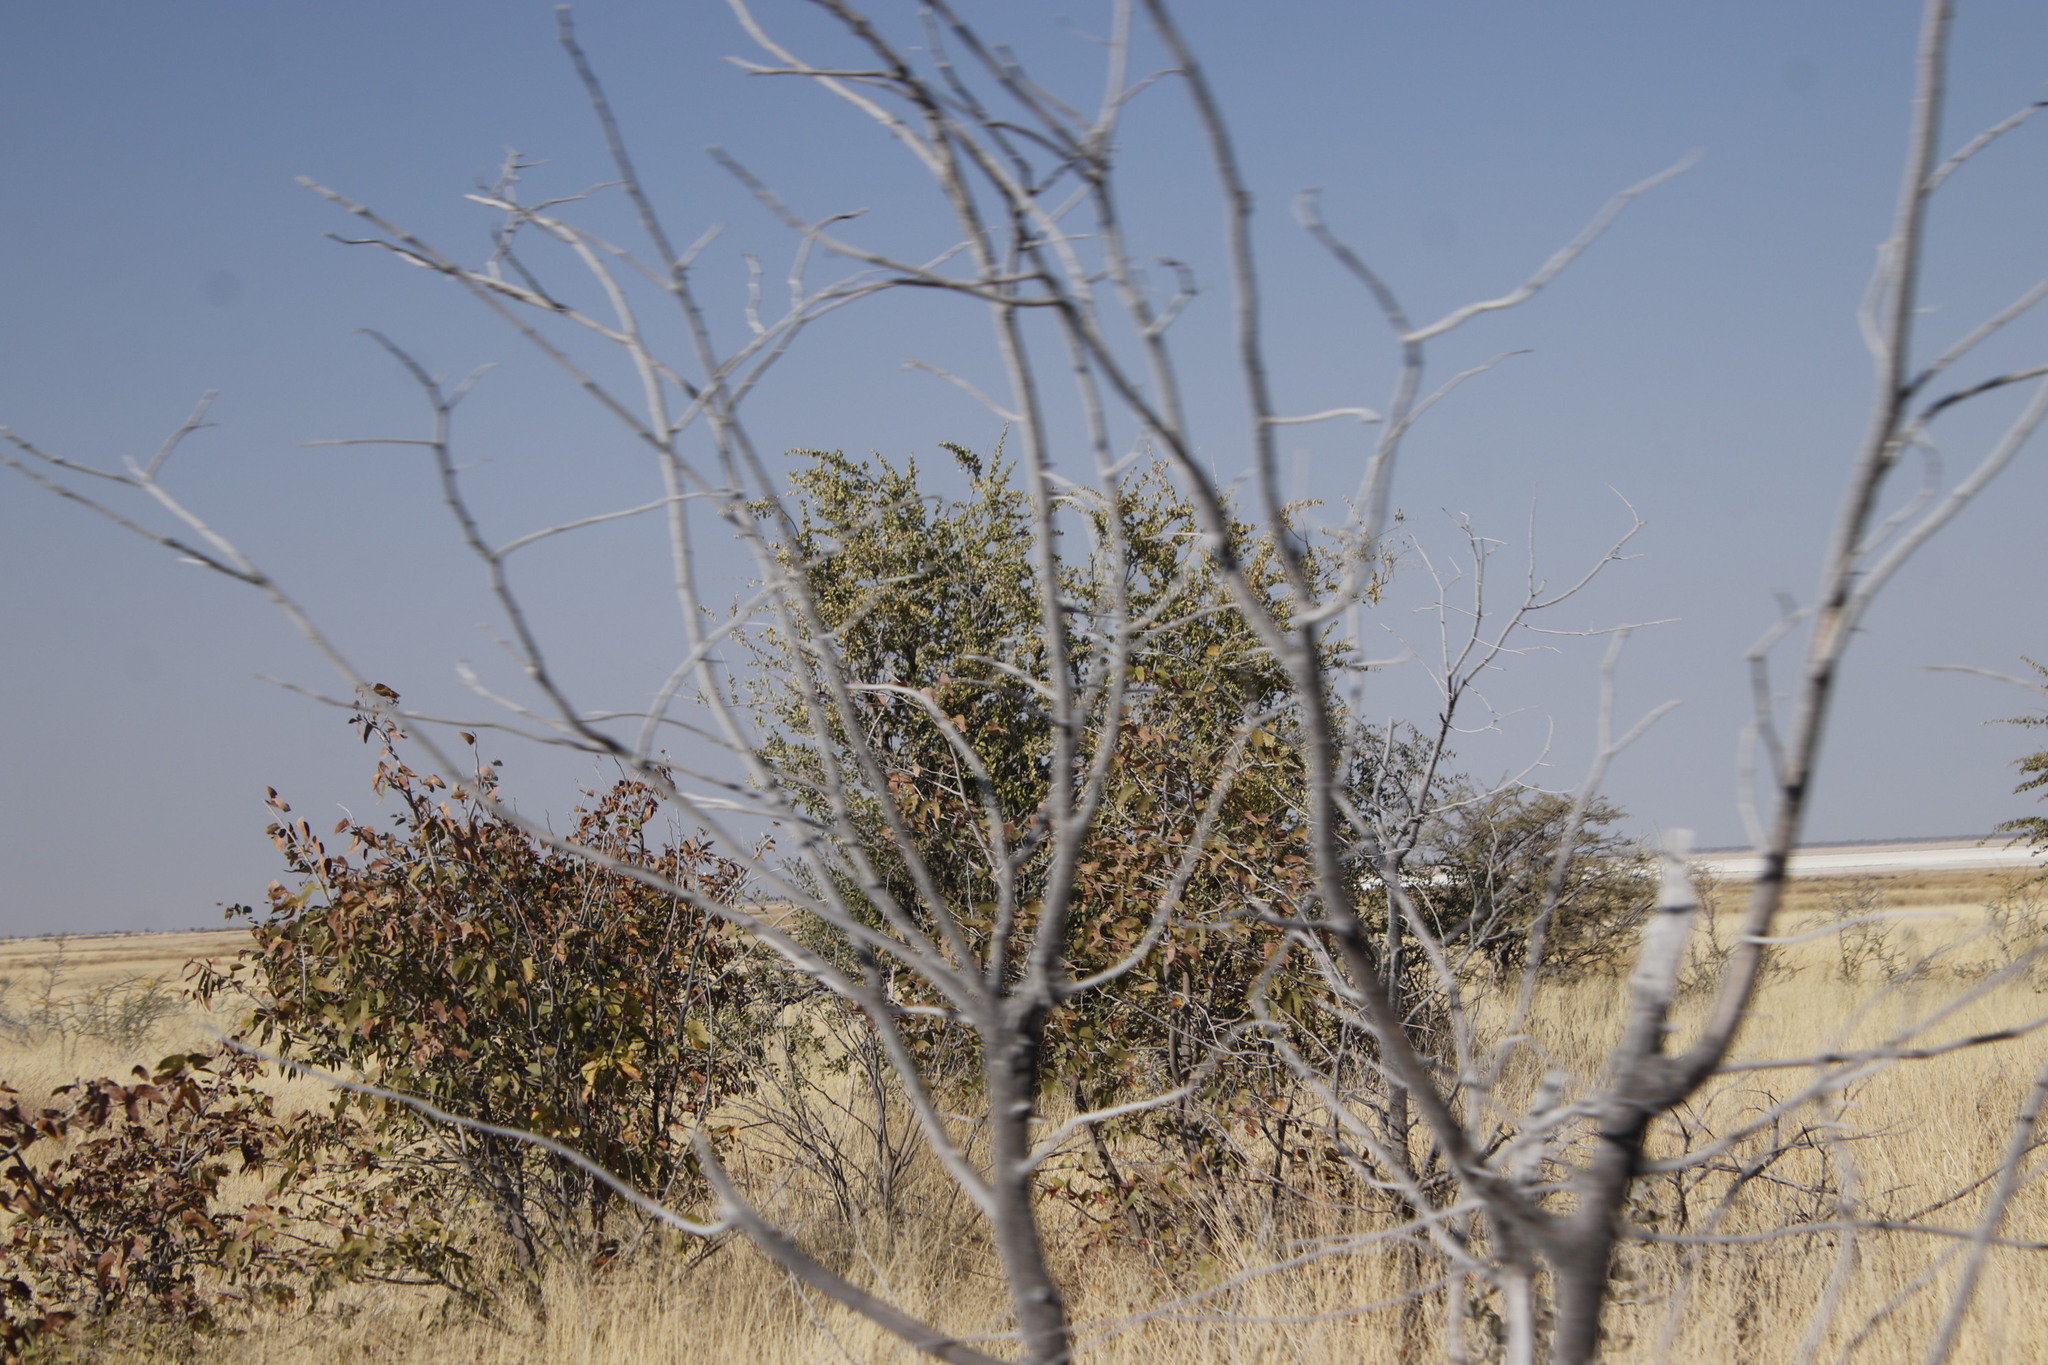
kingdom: Plantae
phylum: Tracheophyta
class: Magnoliopsida
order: Fabales
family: Fabaceae
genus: Colophospermum
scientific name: Colophospermum mopane
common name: Mopane
